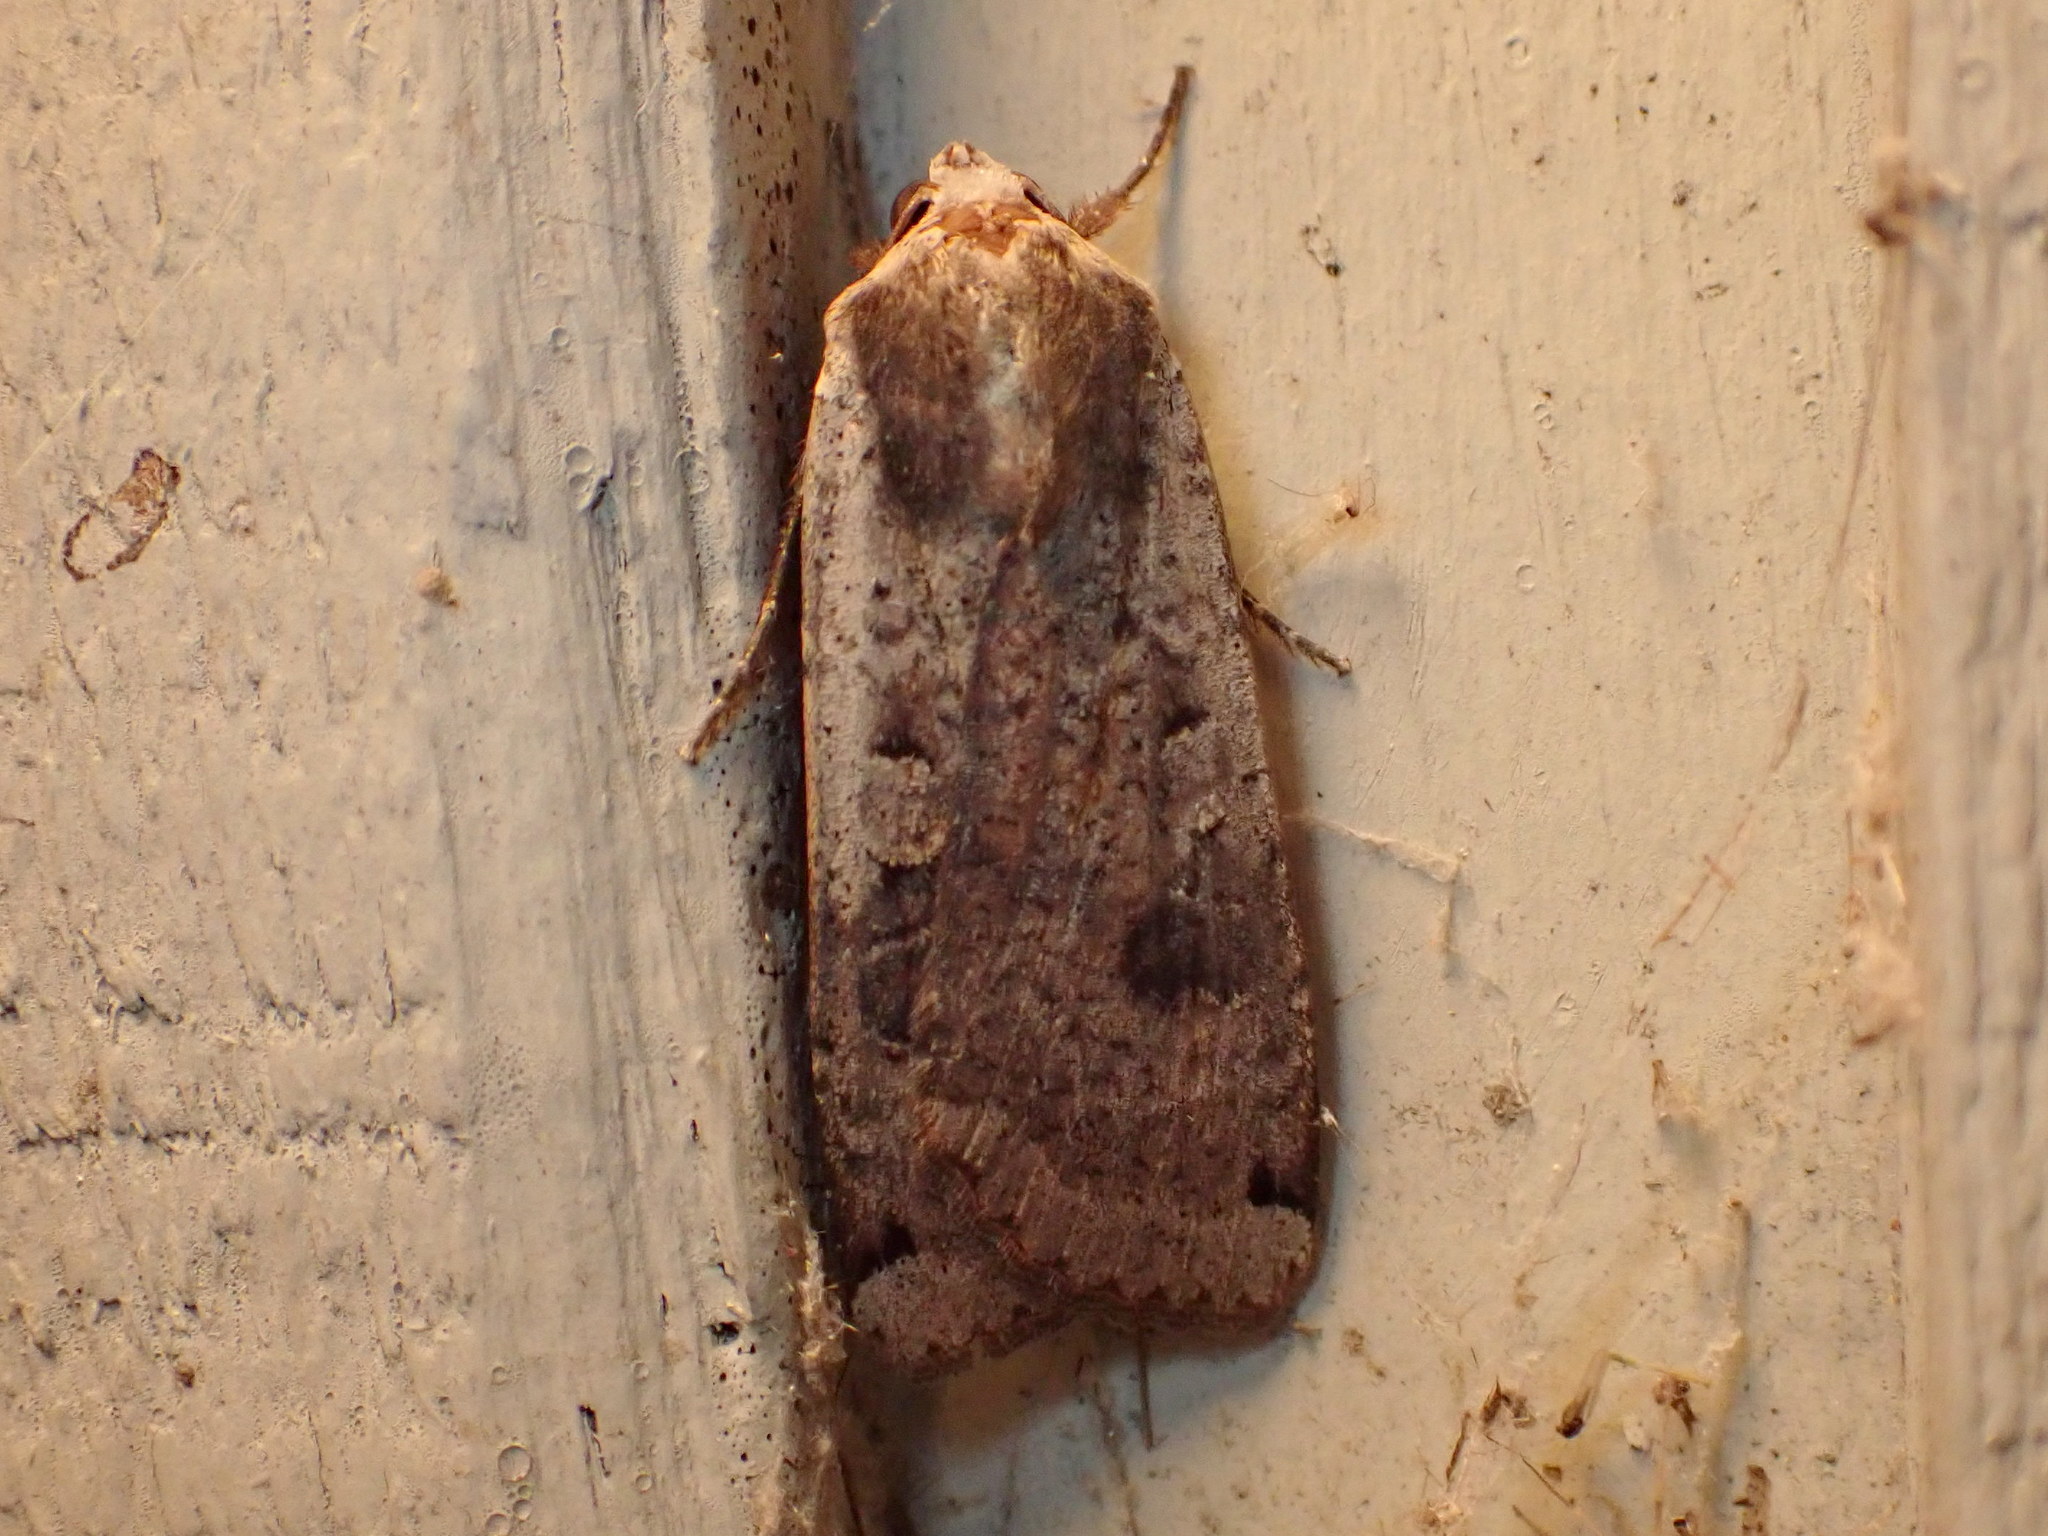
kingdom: Animalia
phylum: Arthropoda
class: Insecta
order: Lepidoptera
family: Noctuidae
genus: Noctua
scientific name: Noctua pronuba
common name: Large yellow underwing
